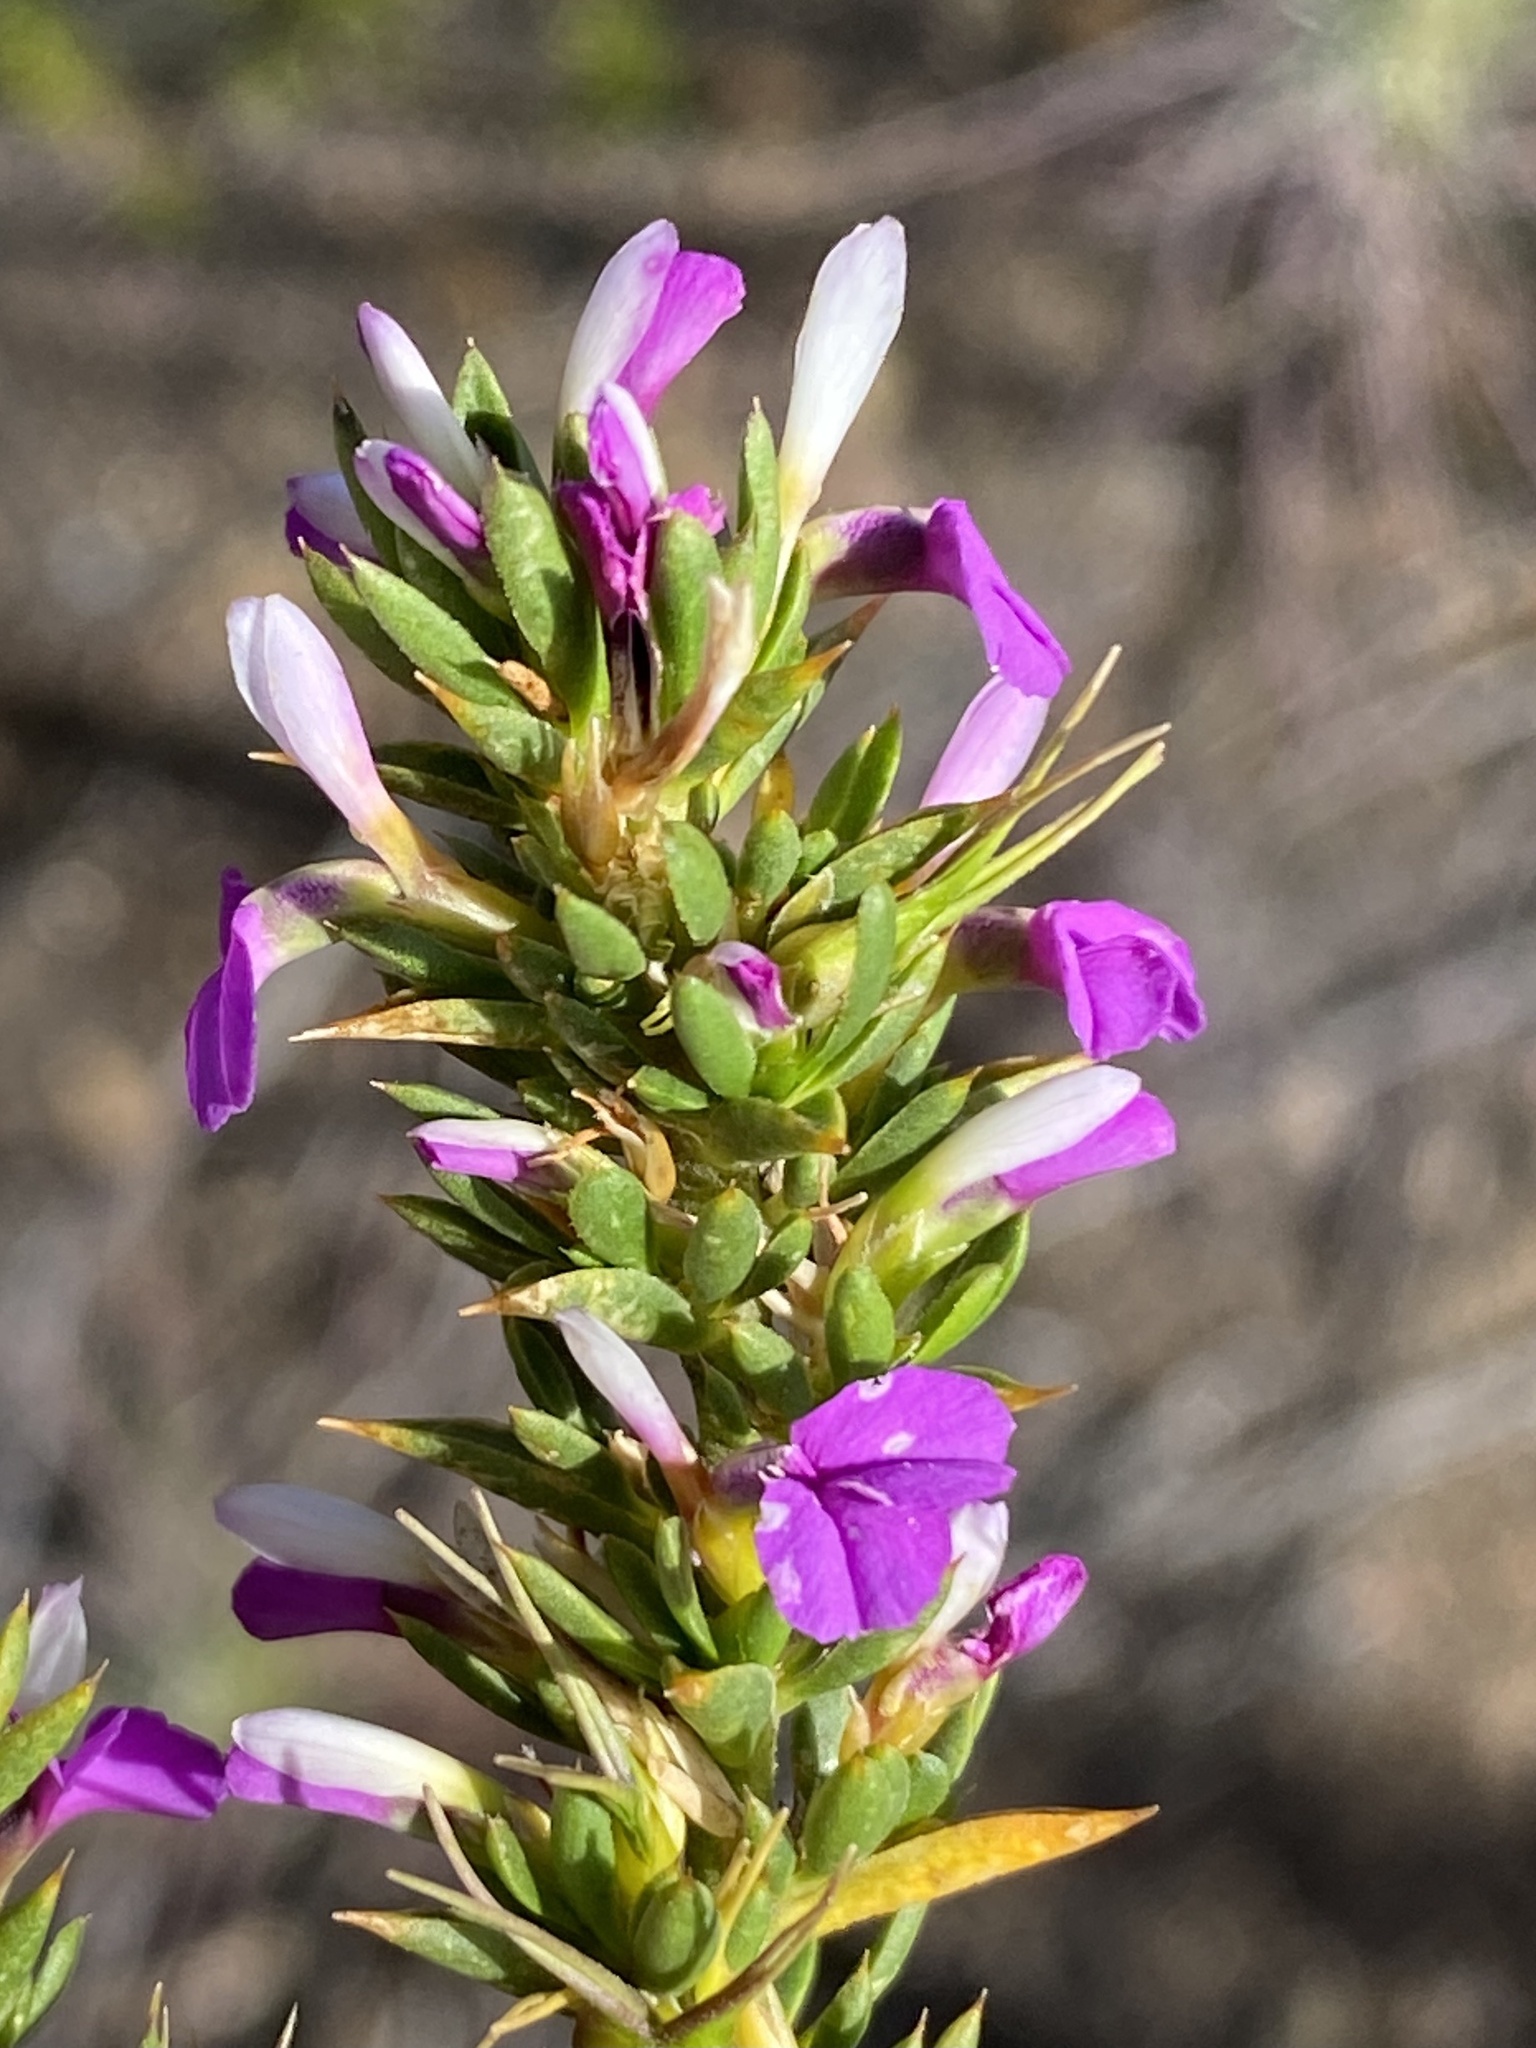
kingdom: Plantae
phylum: Tracheophyta
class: Magnoliopsida
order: Fabales
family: Polygalaceae
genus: Muraltia
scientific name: Muraltia heisteria
